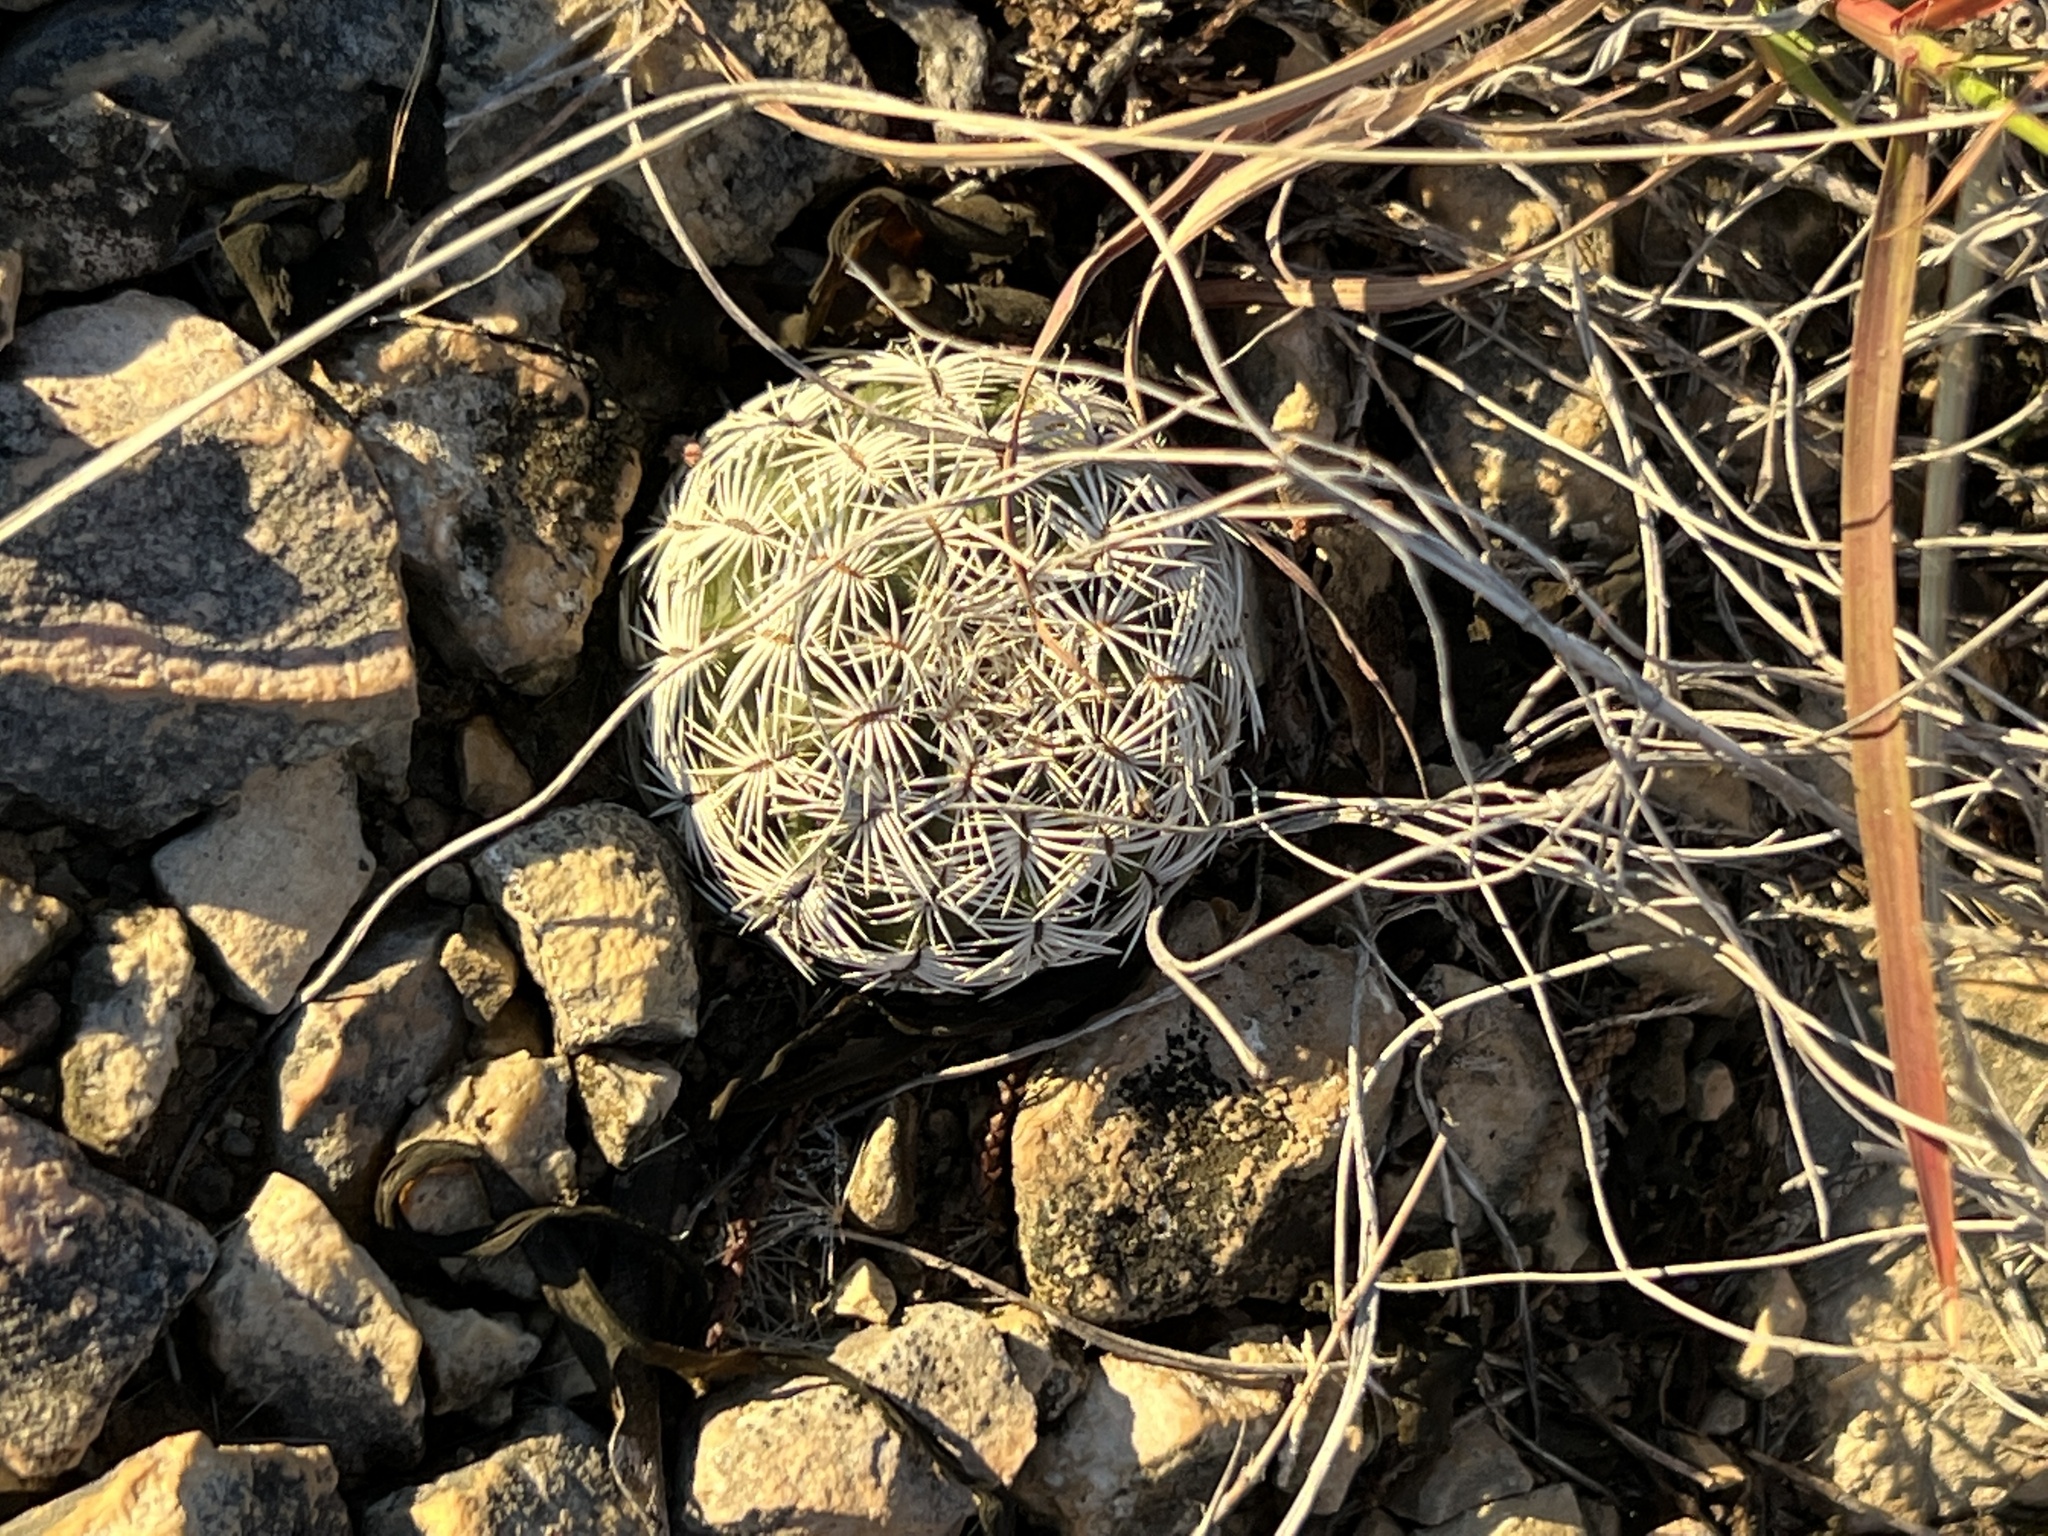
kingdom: Plantae
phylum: Tracheophyta
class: Magnoliopsida
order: Caryophyllales
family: Cactaceae
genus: Echinocereus
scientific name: Echinocereus reichenbachii
